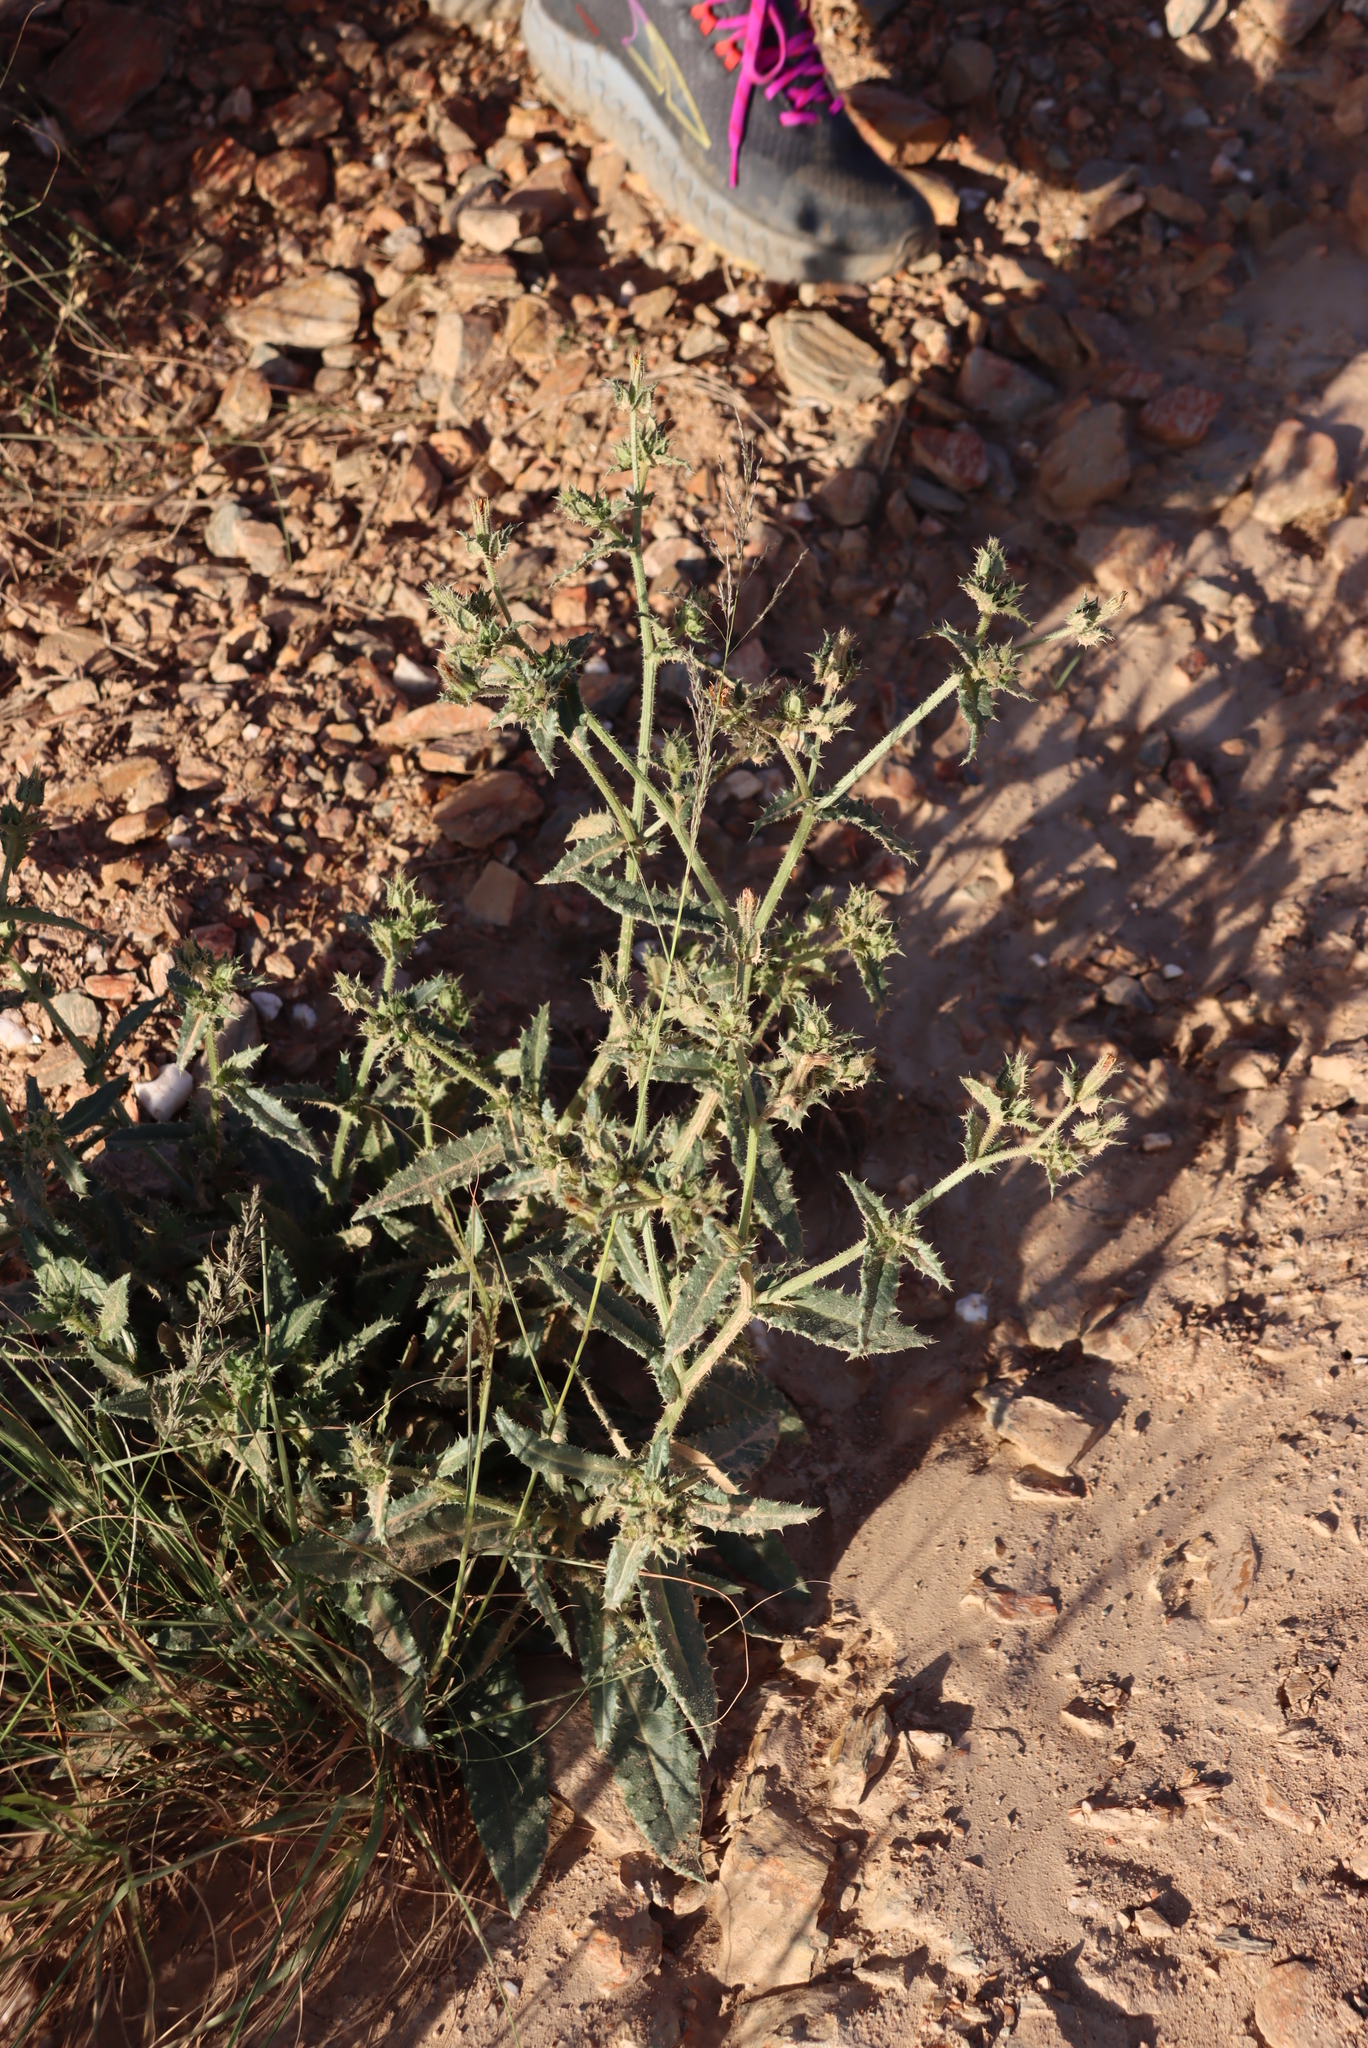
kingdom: Plantae
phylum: Tracheophyta
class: Magnoliopsida
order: Asterales
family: Asteraceae
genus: Helminthotheca
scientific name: Helminthotheca echioides
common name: Ox-tongue
